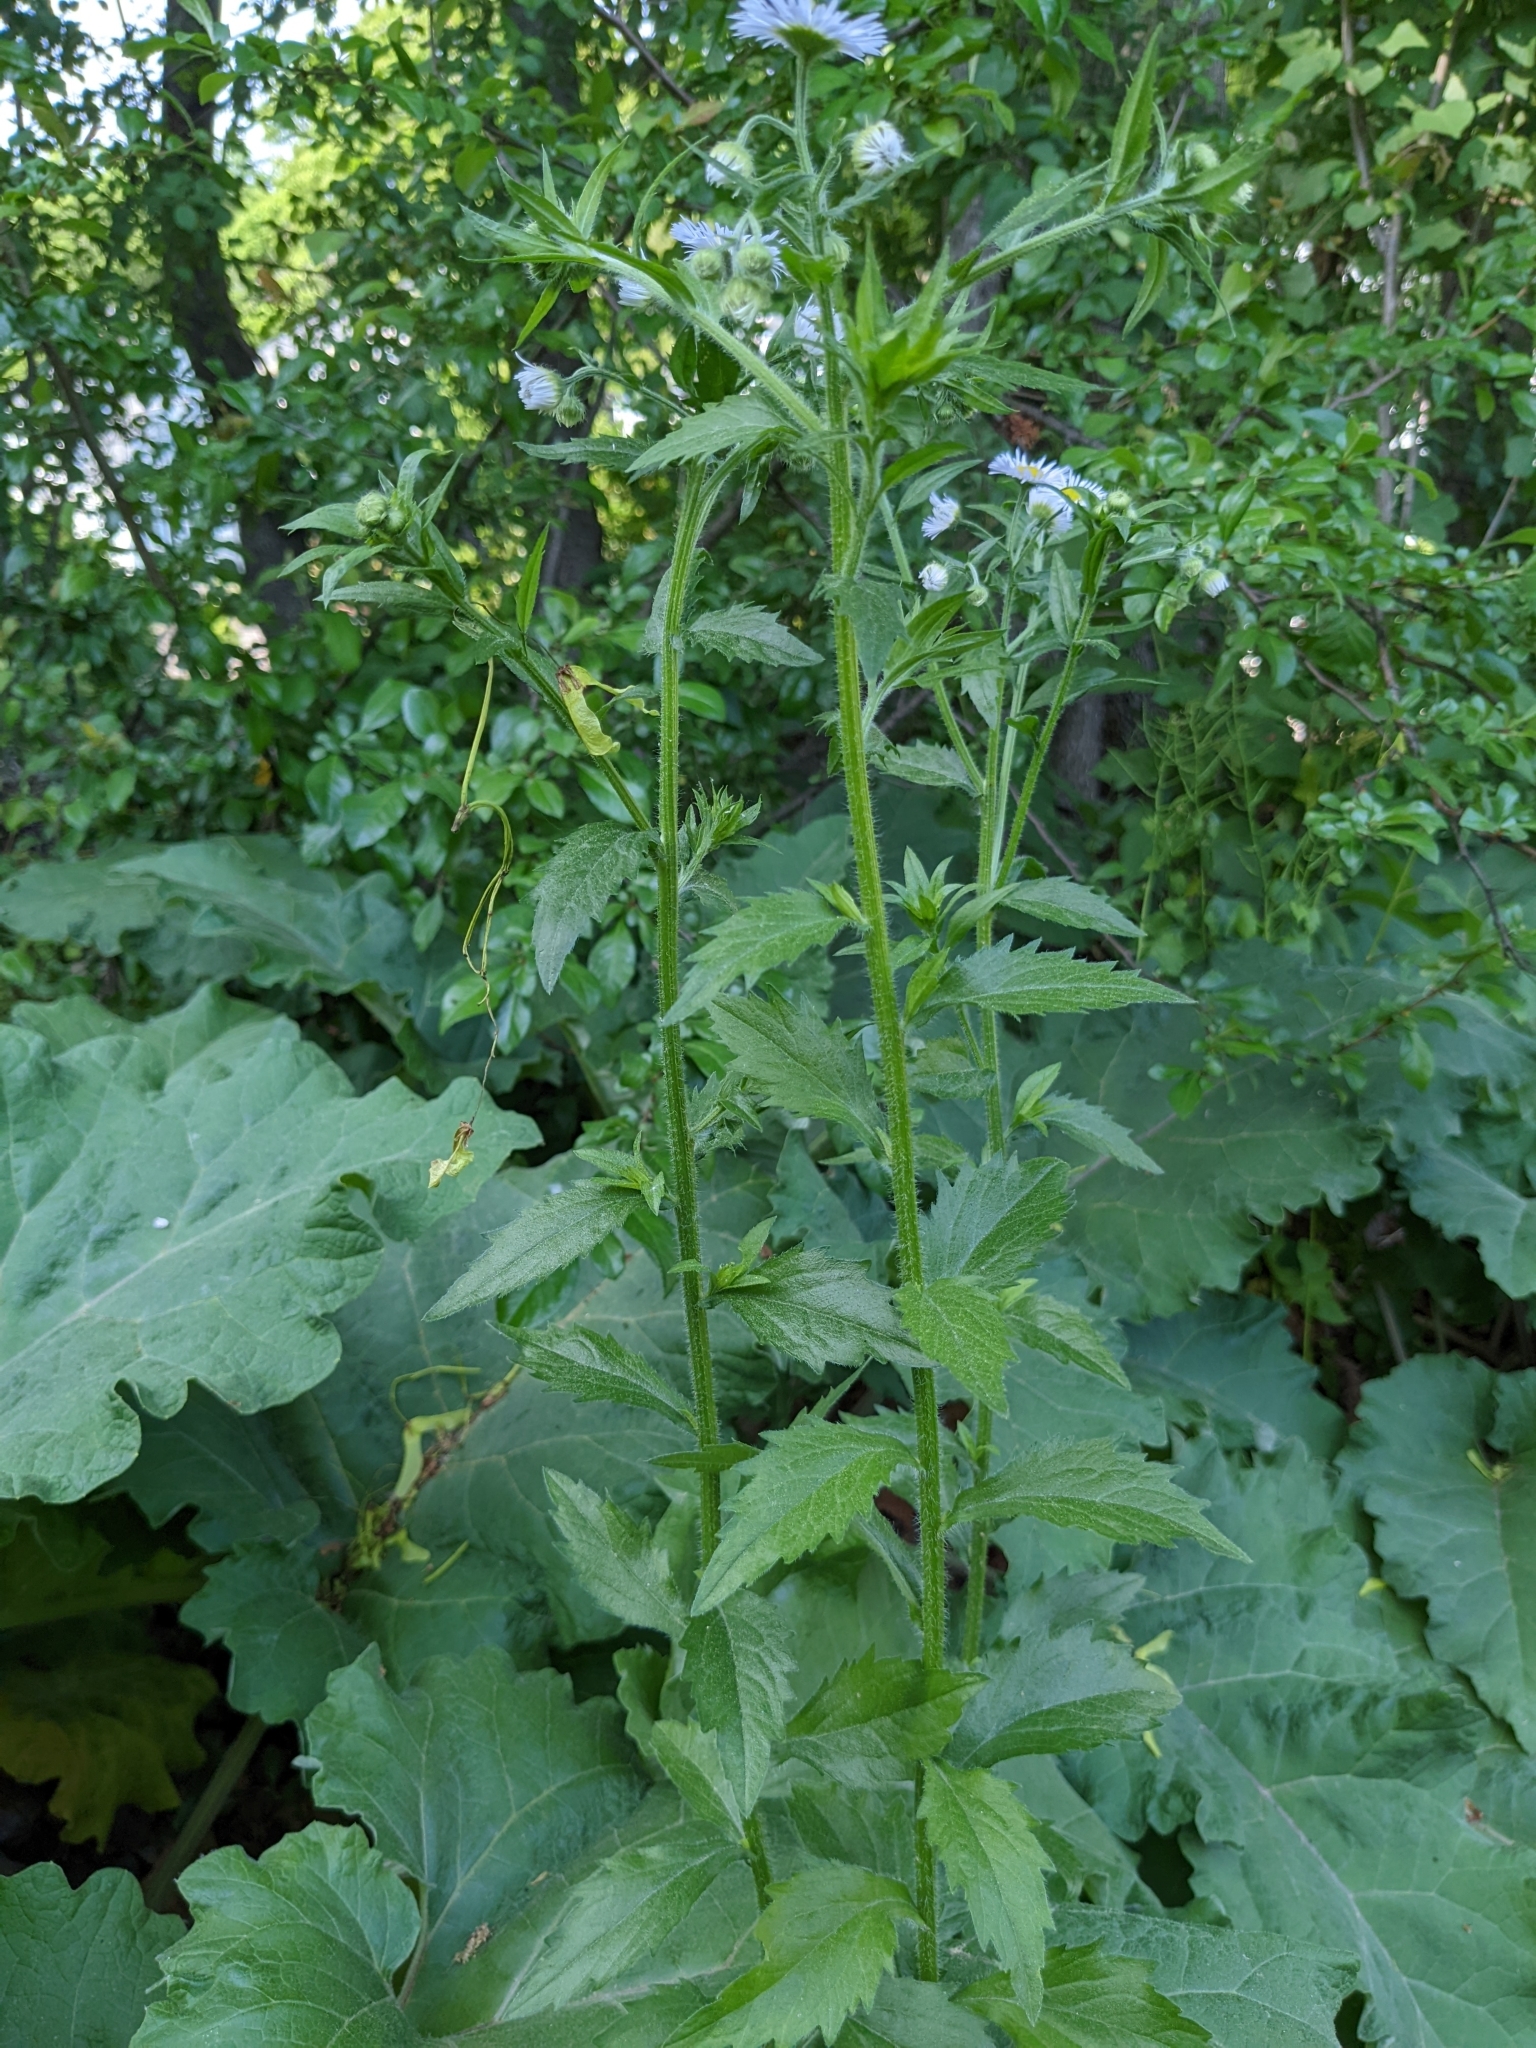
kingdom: Plantae
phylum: Tracheophyta
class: Magnoliopsida
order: Asterales
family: Asteraceae
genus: Erigeron
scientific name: Erigeron annuus
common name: Tall fleabane
